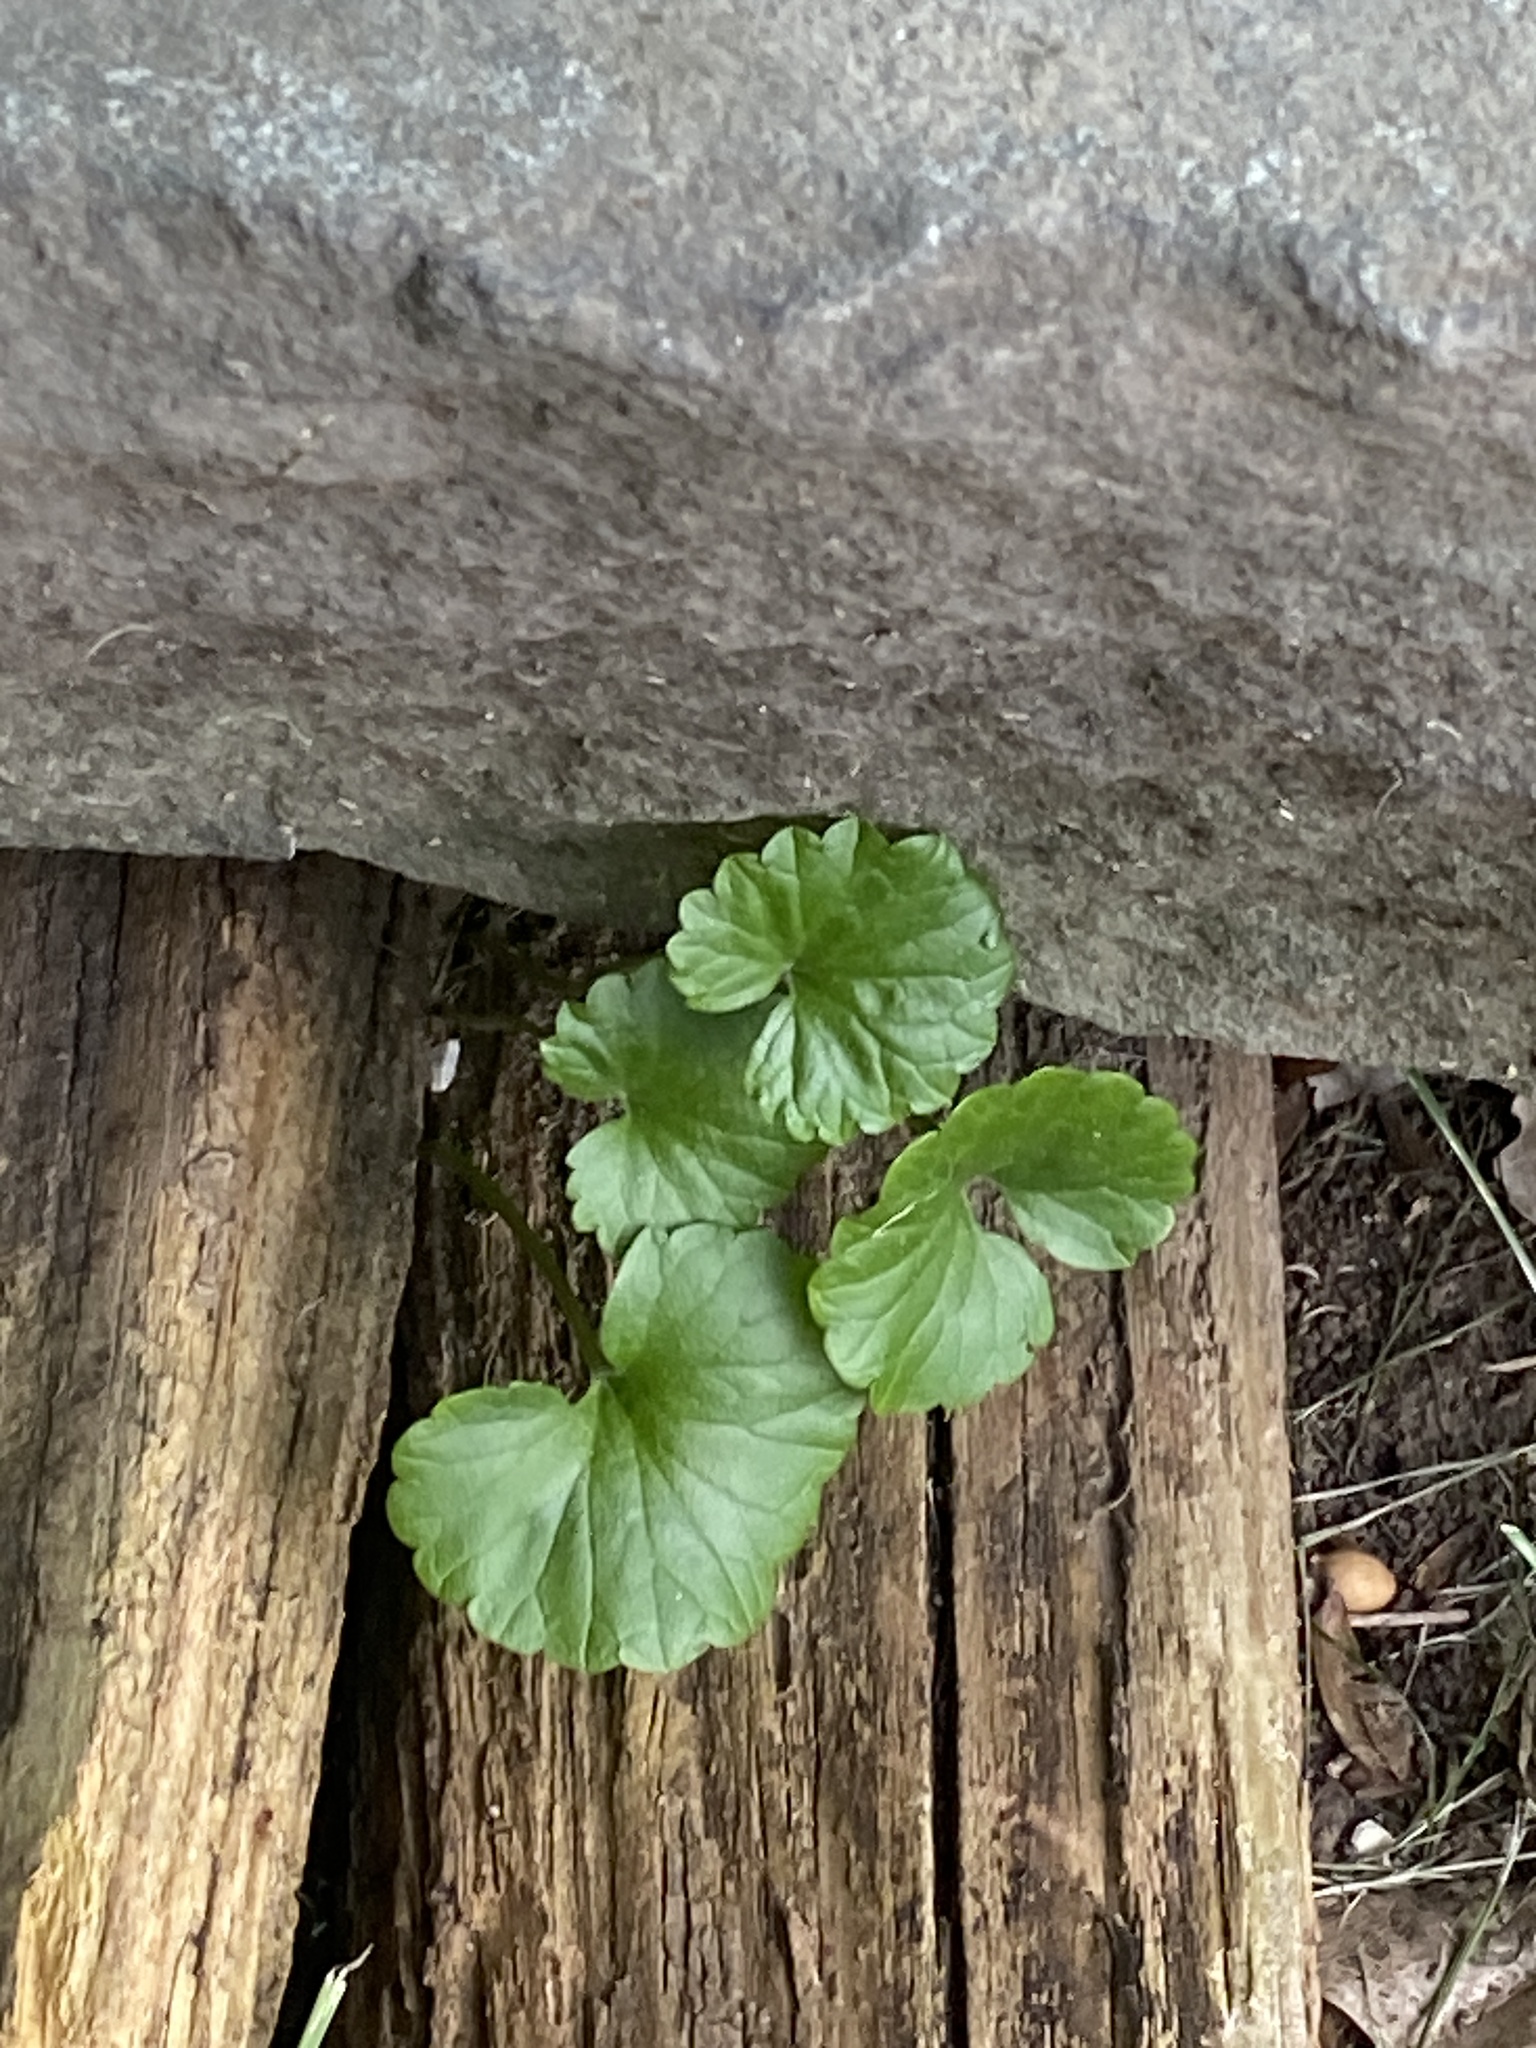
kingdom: Plantae
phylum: Tracheophyta
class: Magnoliopsida
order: Lamiales
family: Lamiaceae
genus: Glechoma
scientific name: Glechoma hederacea
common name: Ground ivy
